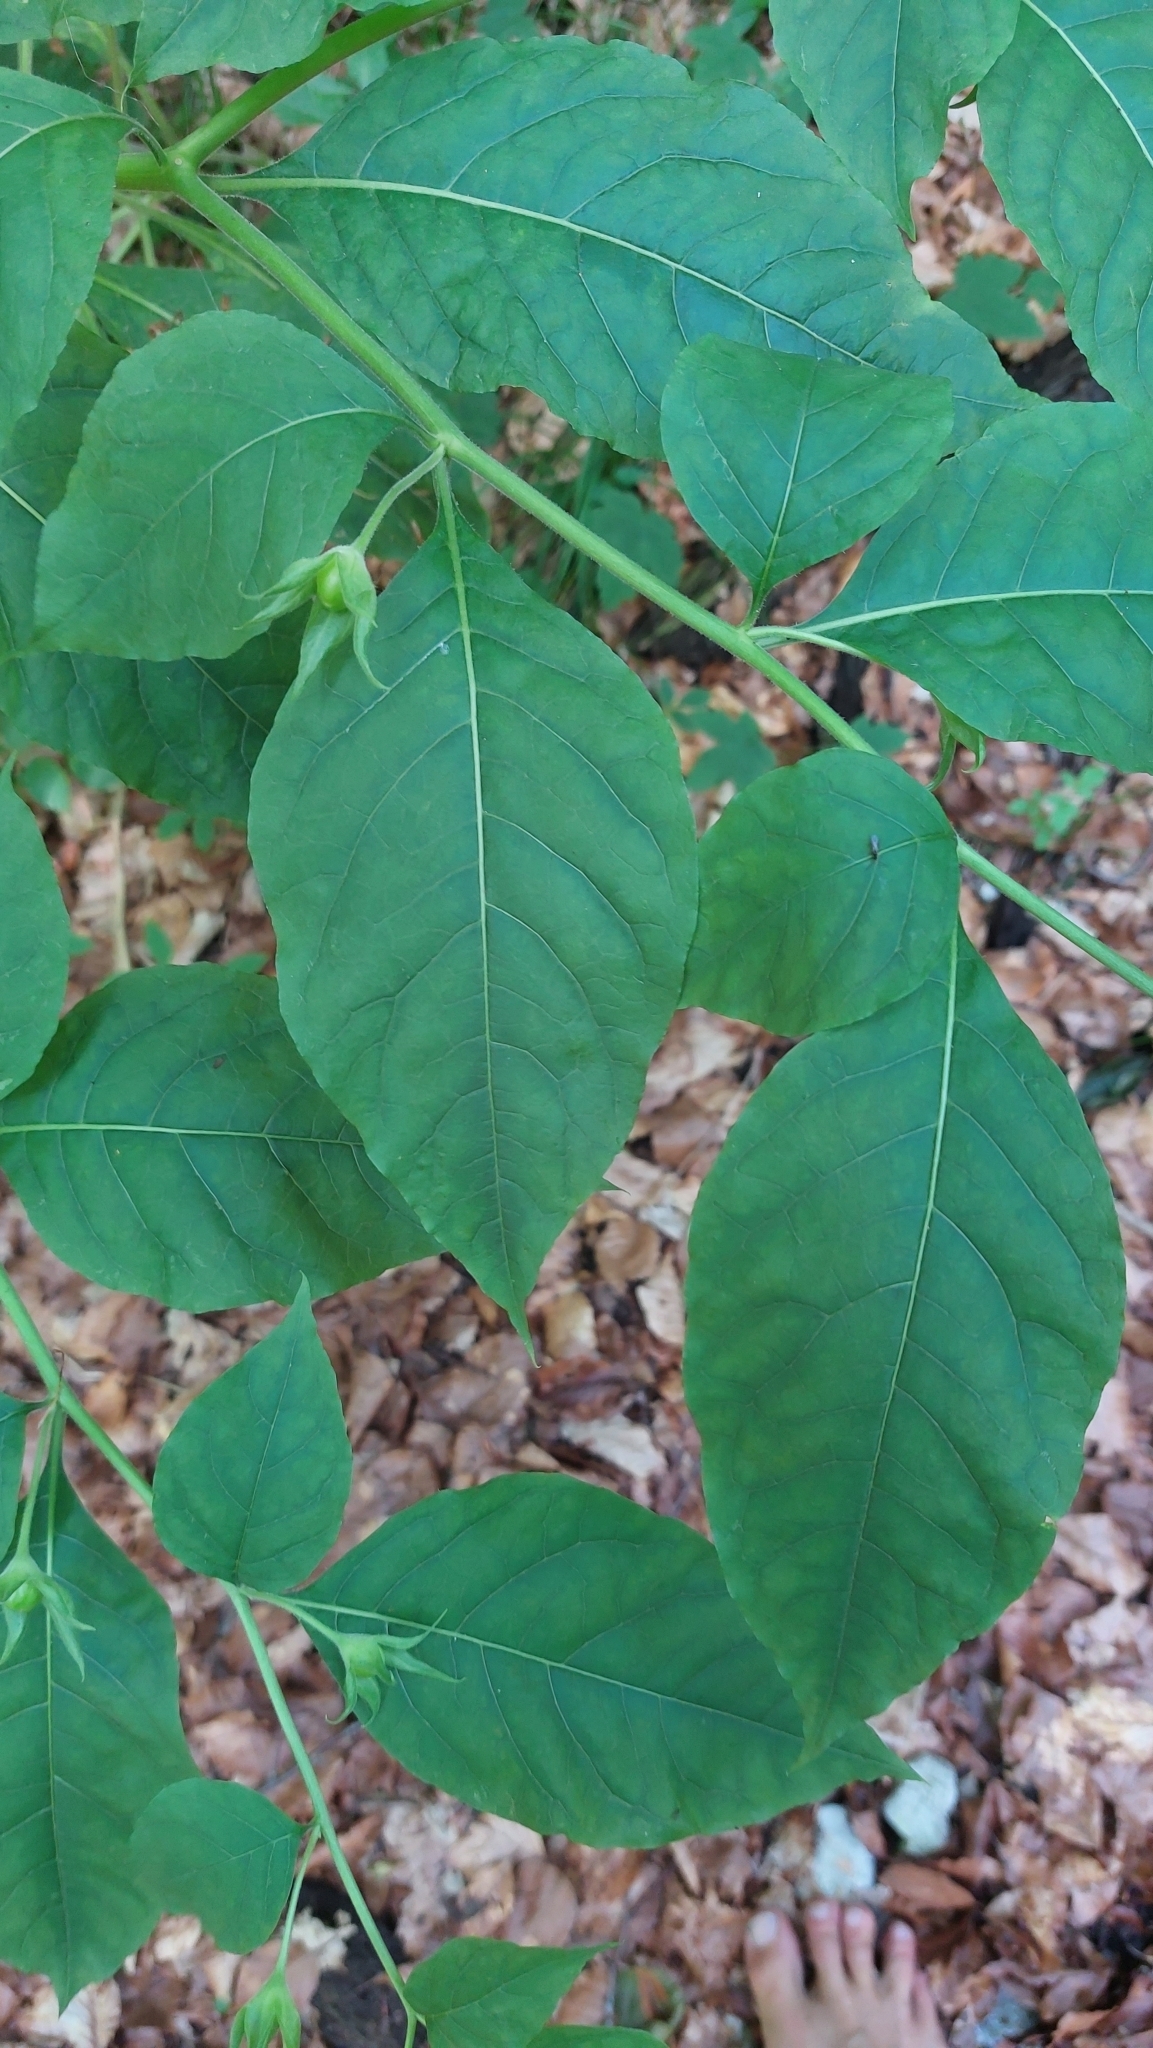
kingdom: Plantae
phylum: Tracheophyta
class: Magnoliopsida
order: Solanales
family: Solanaceae
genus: Atropa
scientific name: Atropa belladonna
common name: Deadly nightshade
